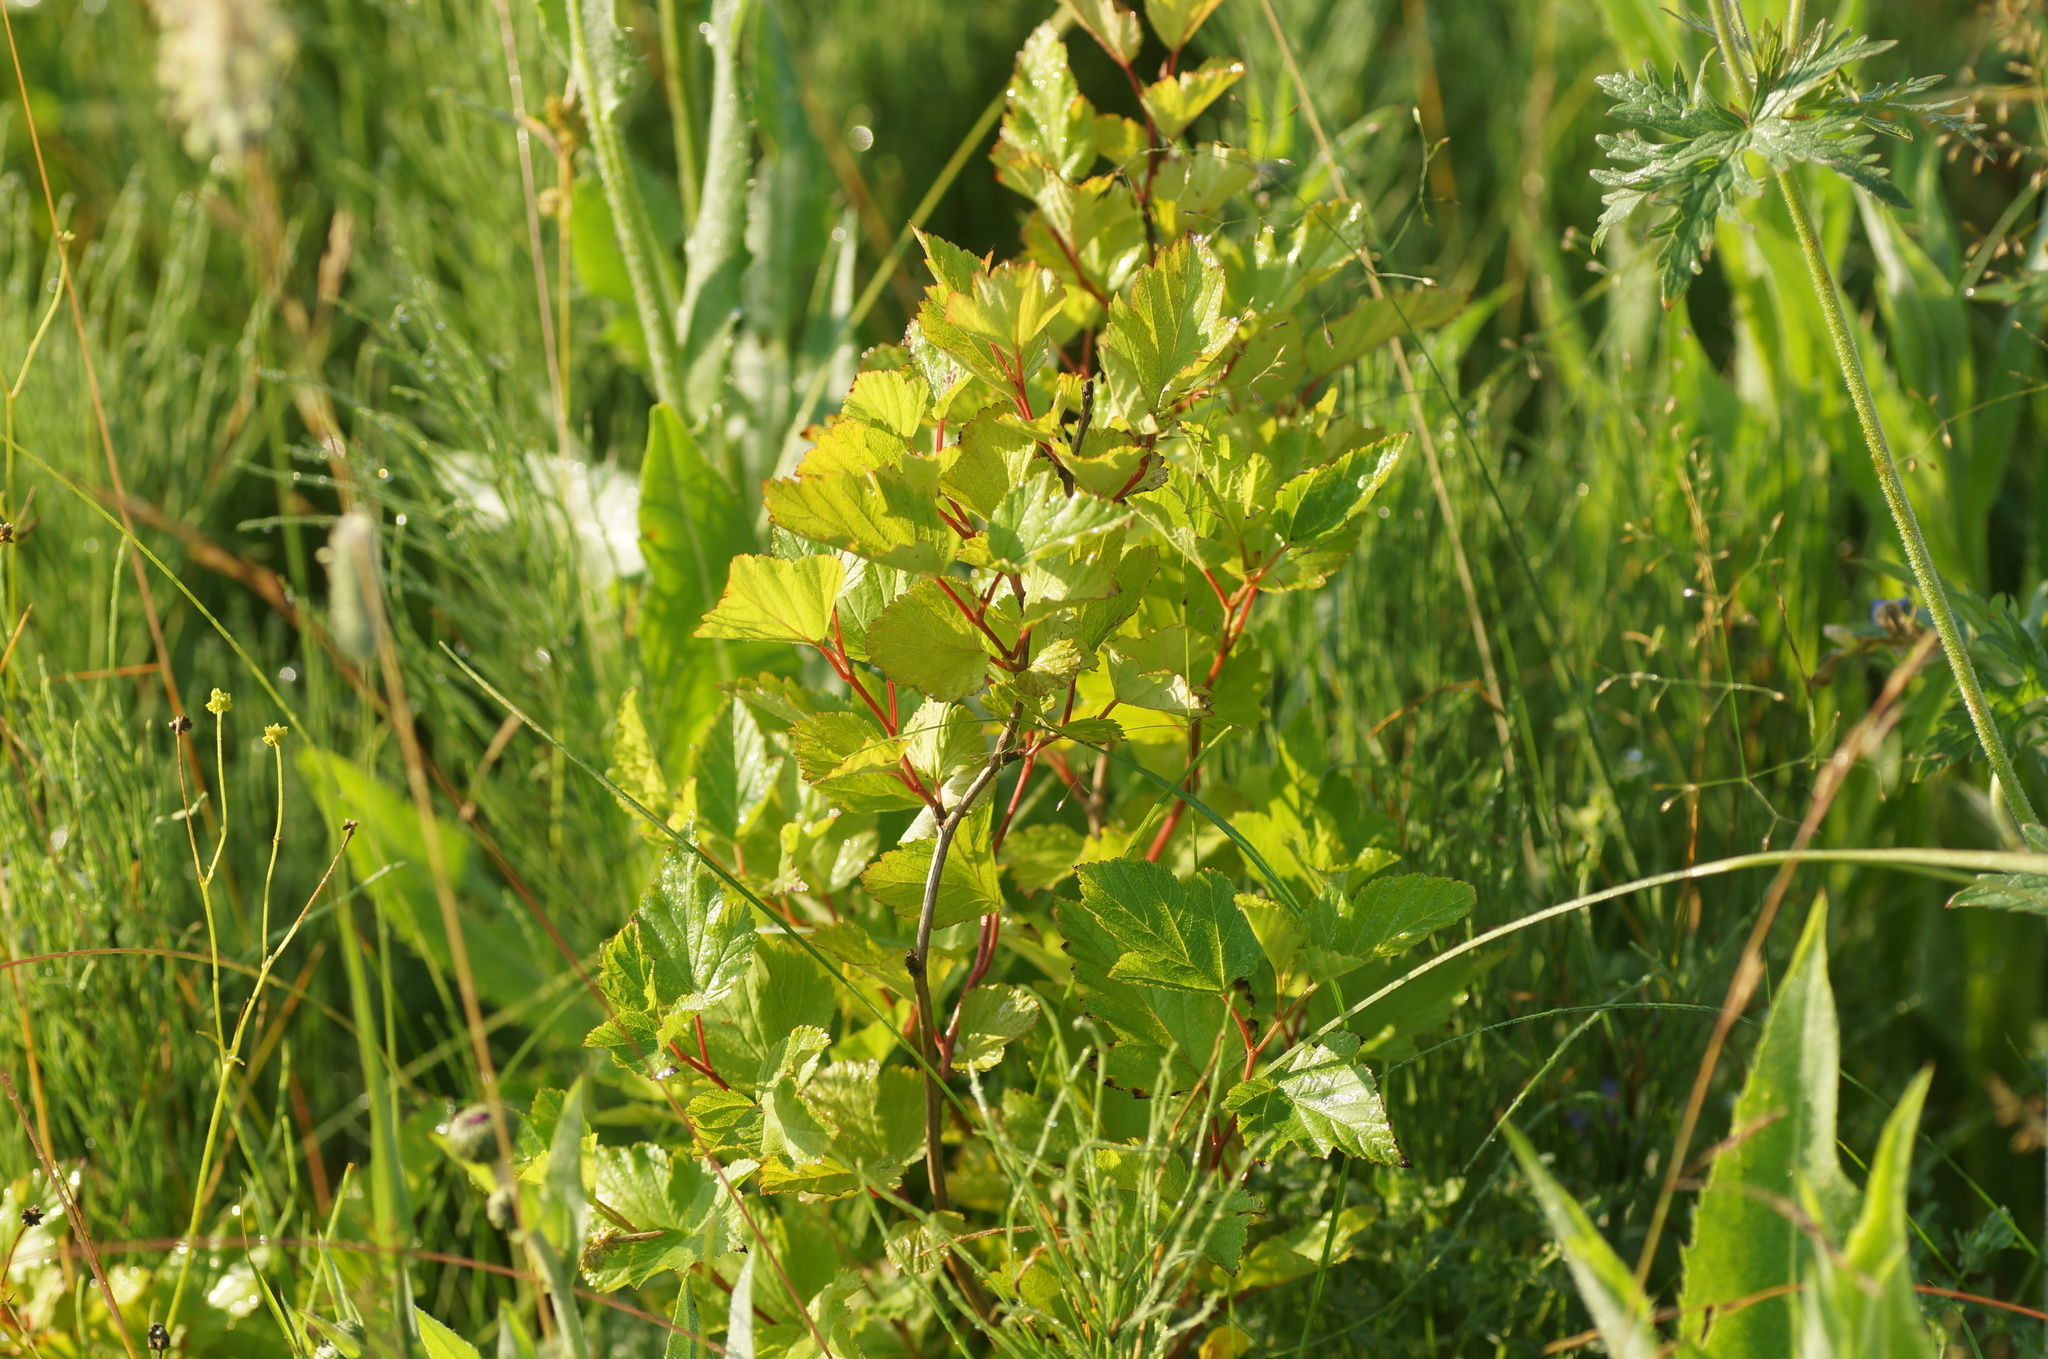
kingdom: Plantae
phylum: Tracheophyta
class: Magnoliopsida
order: Rosales
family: Rosaceae
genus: Physocarpus
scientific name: Physocarpus opulifolius
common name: Ninebark
